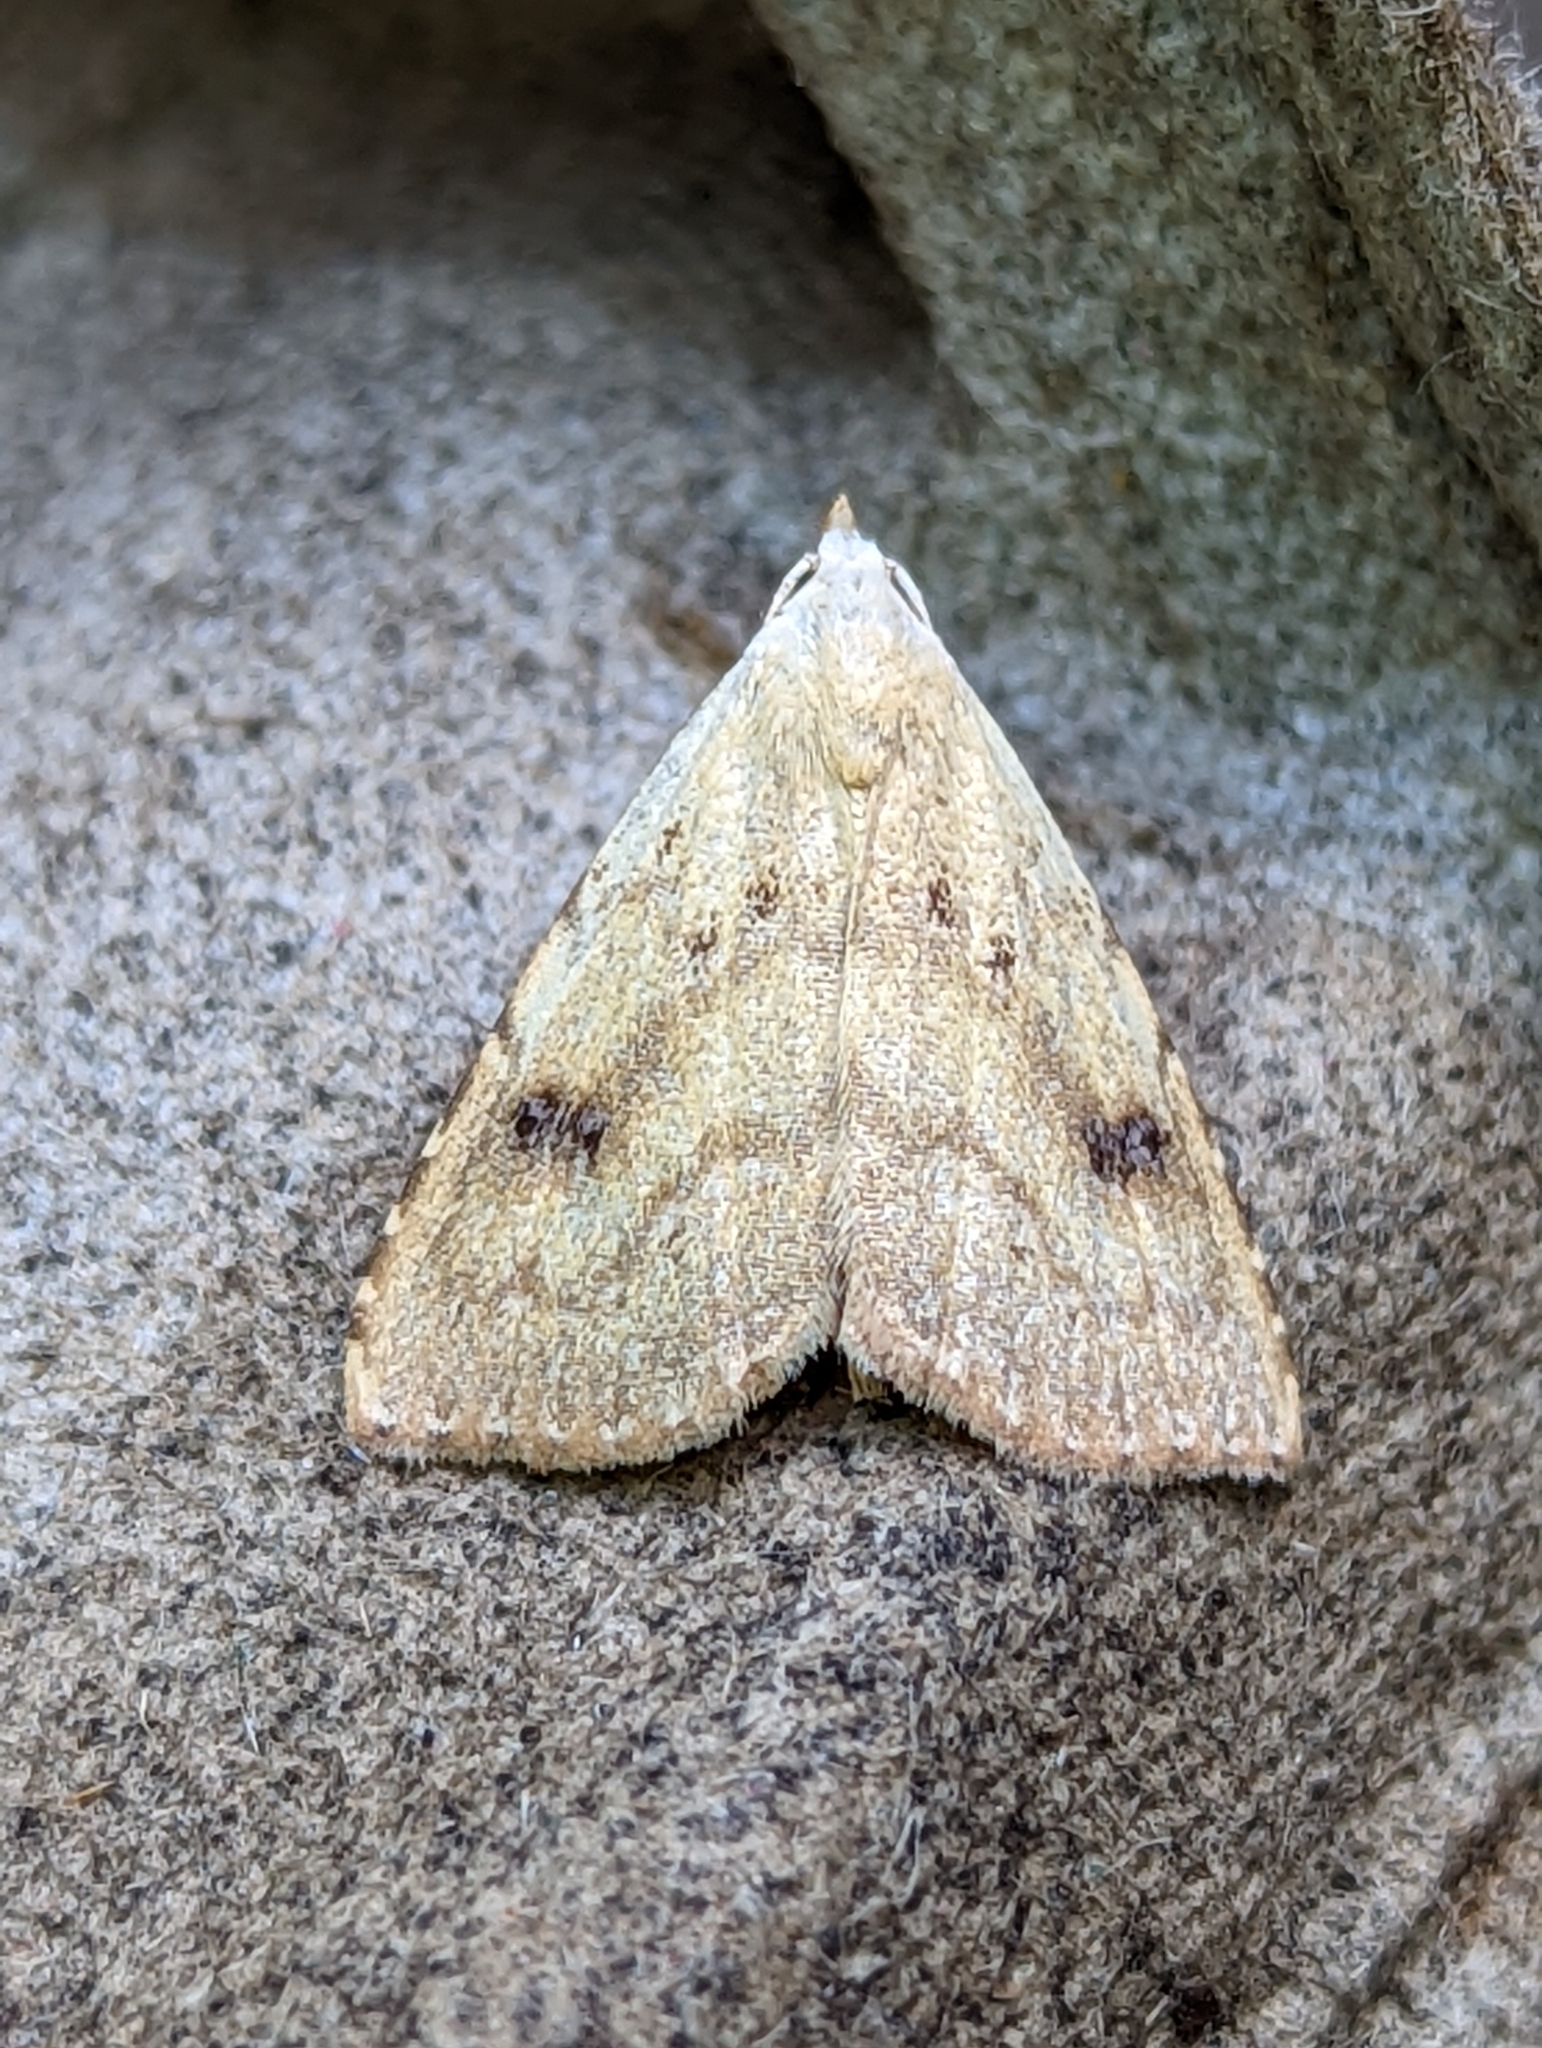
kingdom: Animalia
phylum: Arthropoda
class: Insecta
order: Lepidoptera
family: Erebidae
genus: Rivula
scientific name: Rivula sericealis
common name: Straw dot
